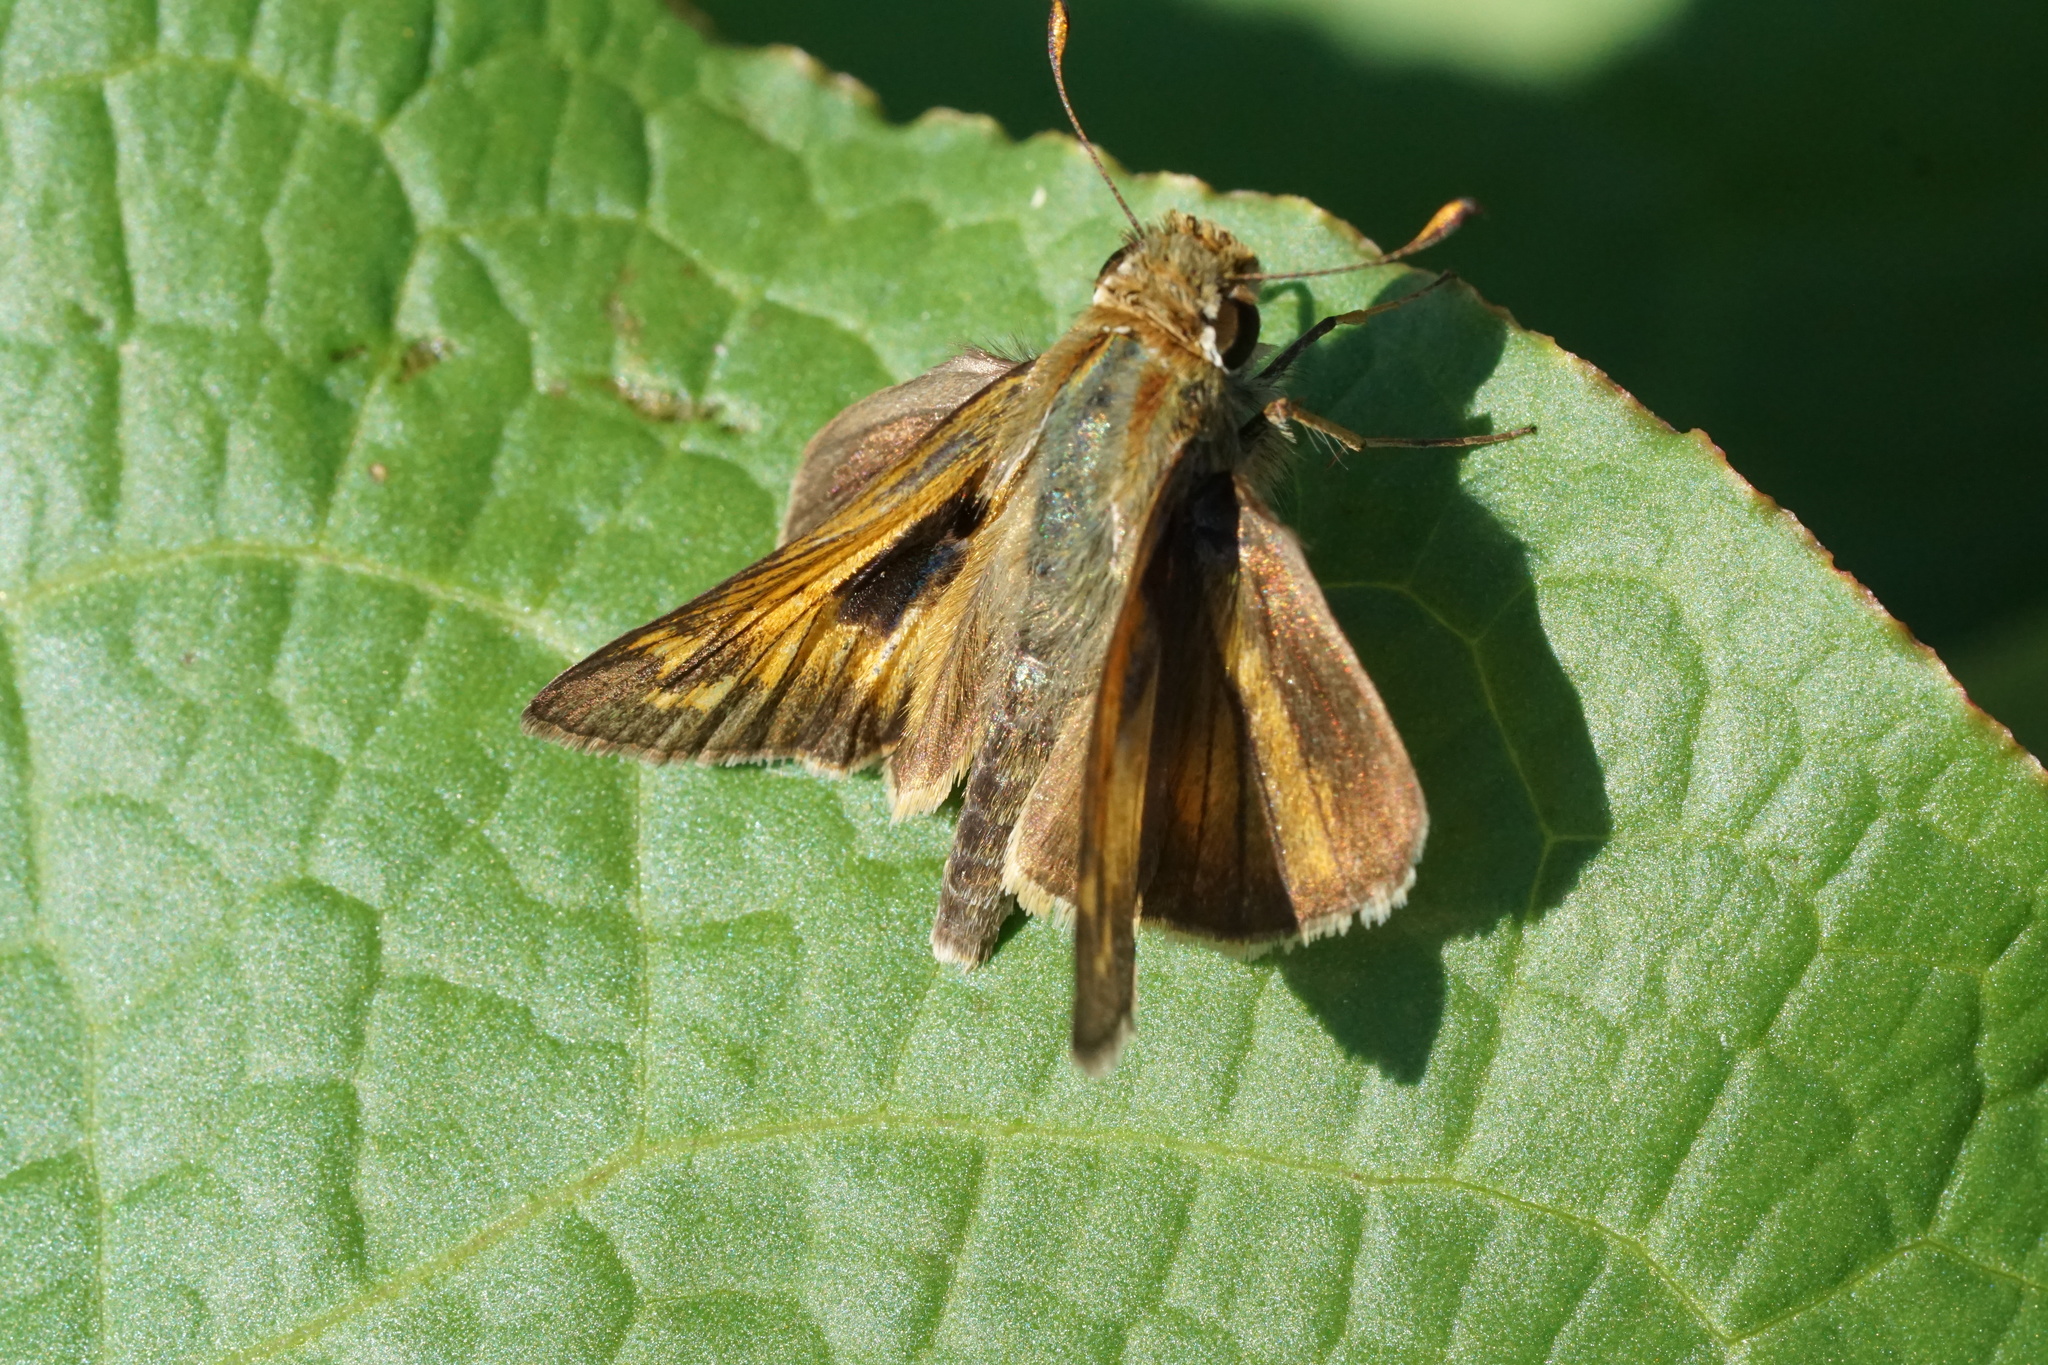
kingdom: Animalia
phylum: Arthropoda
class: Insecta
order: Lepidoptera
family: Hesperiidae
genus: Atalopedes
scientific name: Atalopedes
